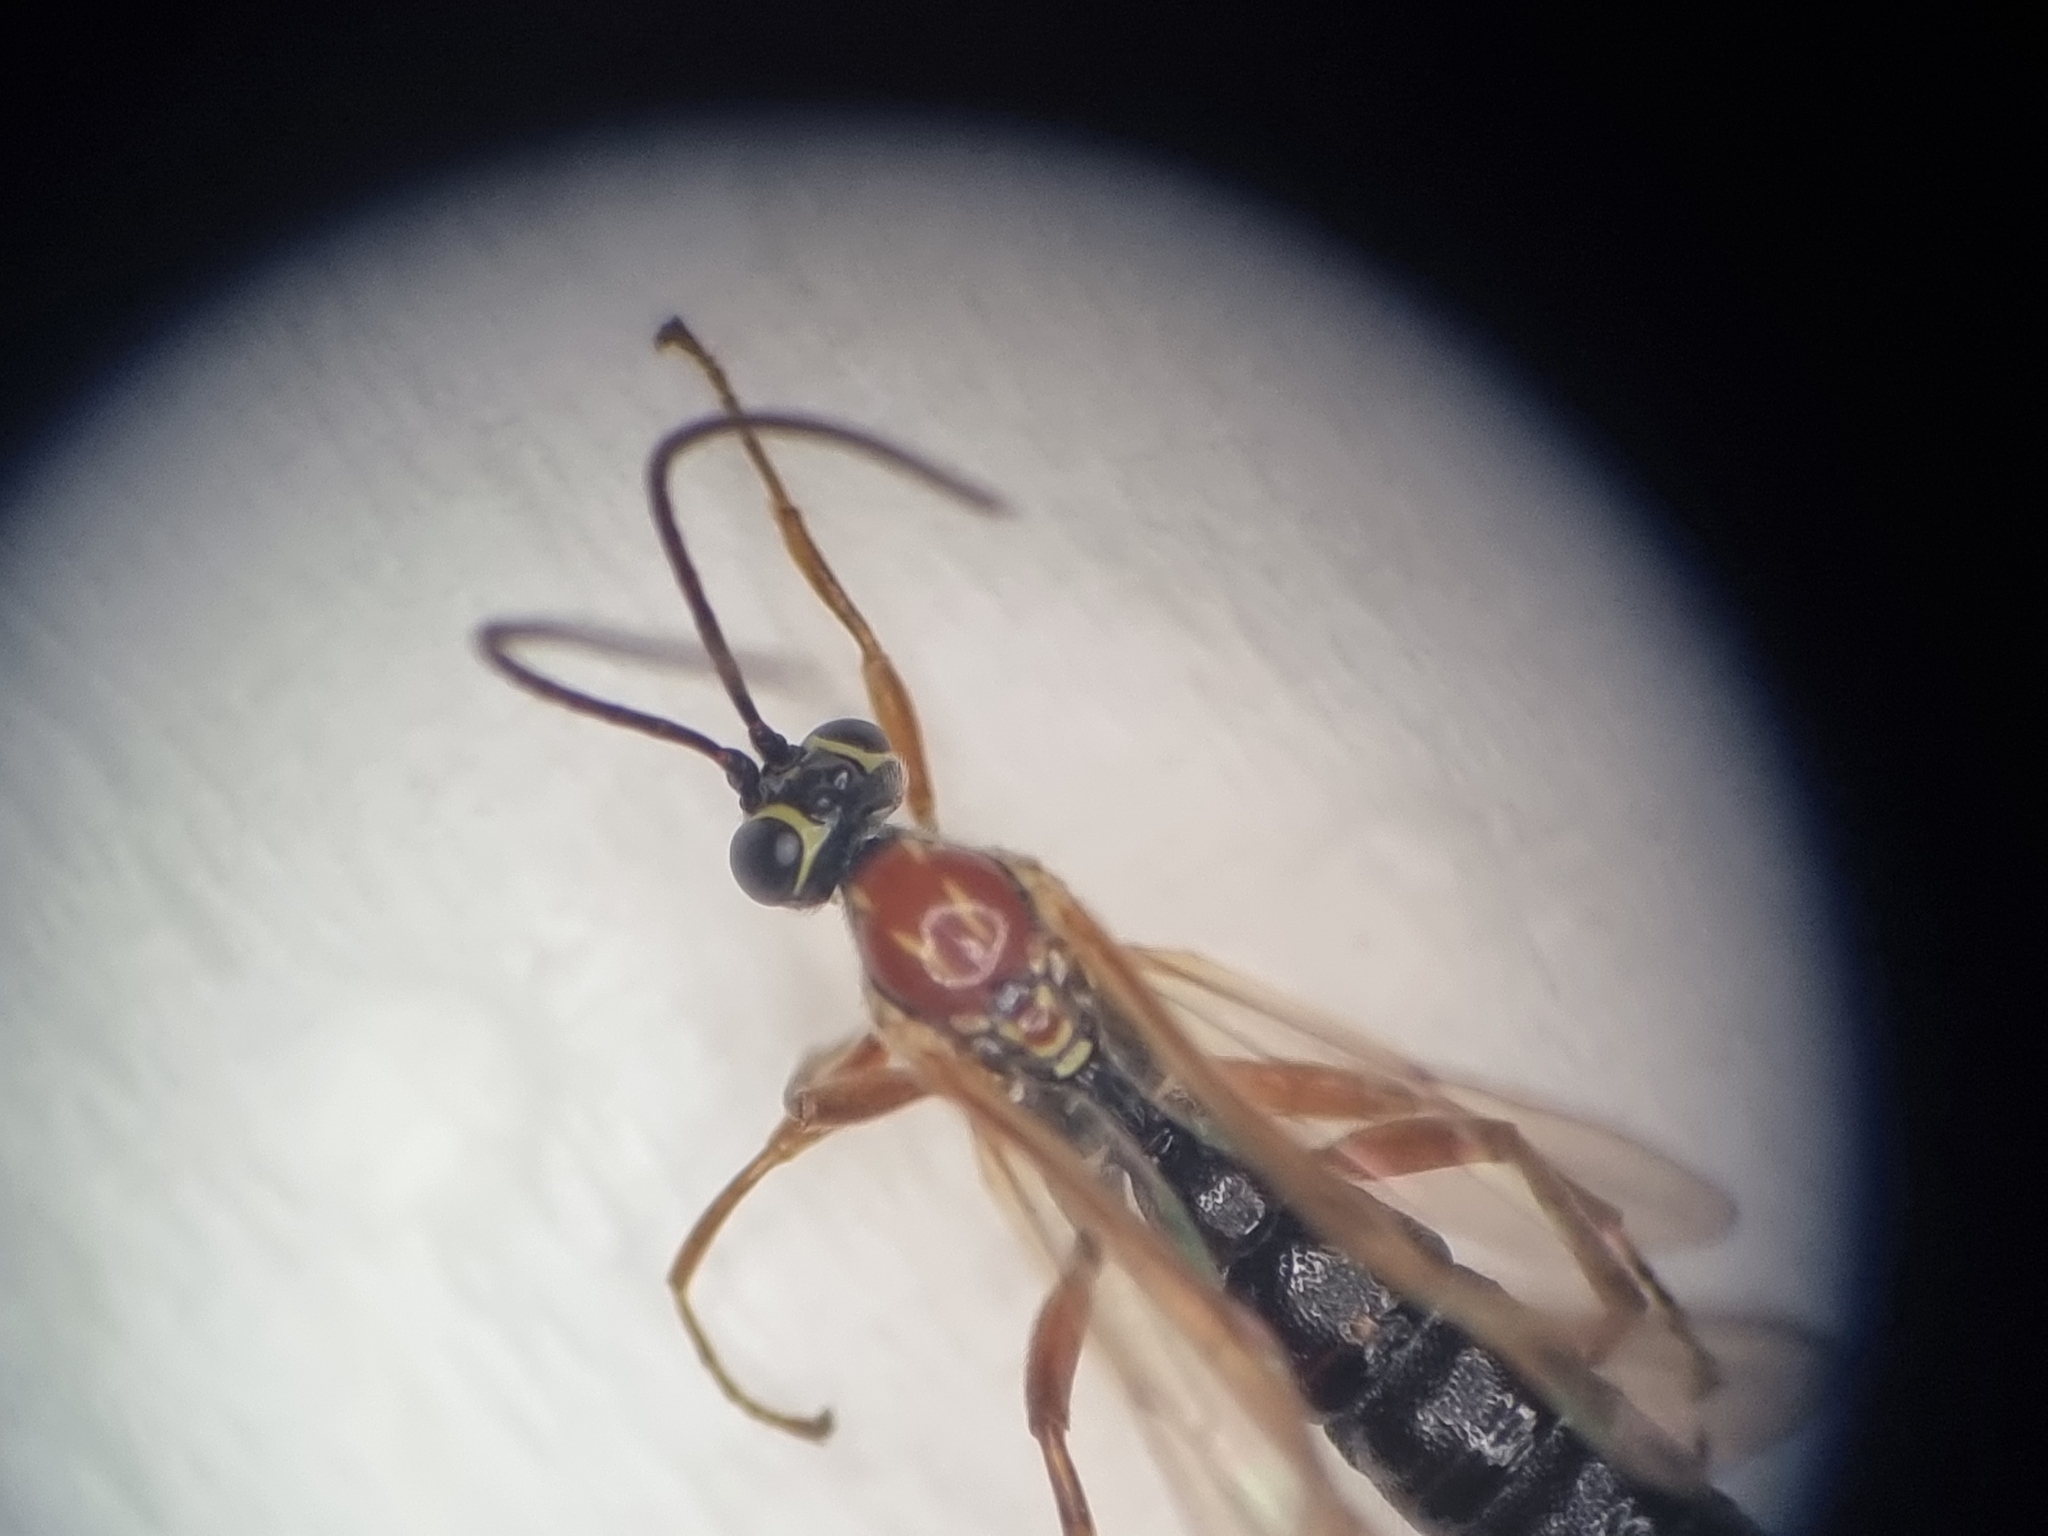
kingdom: Animalia
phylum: Arthropoda
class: Insecta
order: Hymenoptera
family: Ichneumonidae
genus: Tromatobia
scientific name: Tromatobia lineatoria
